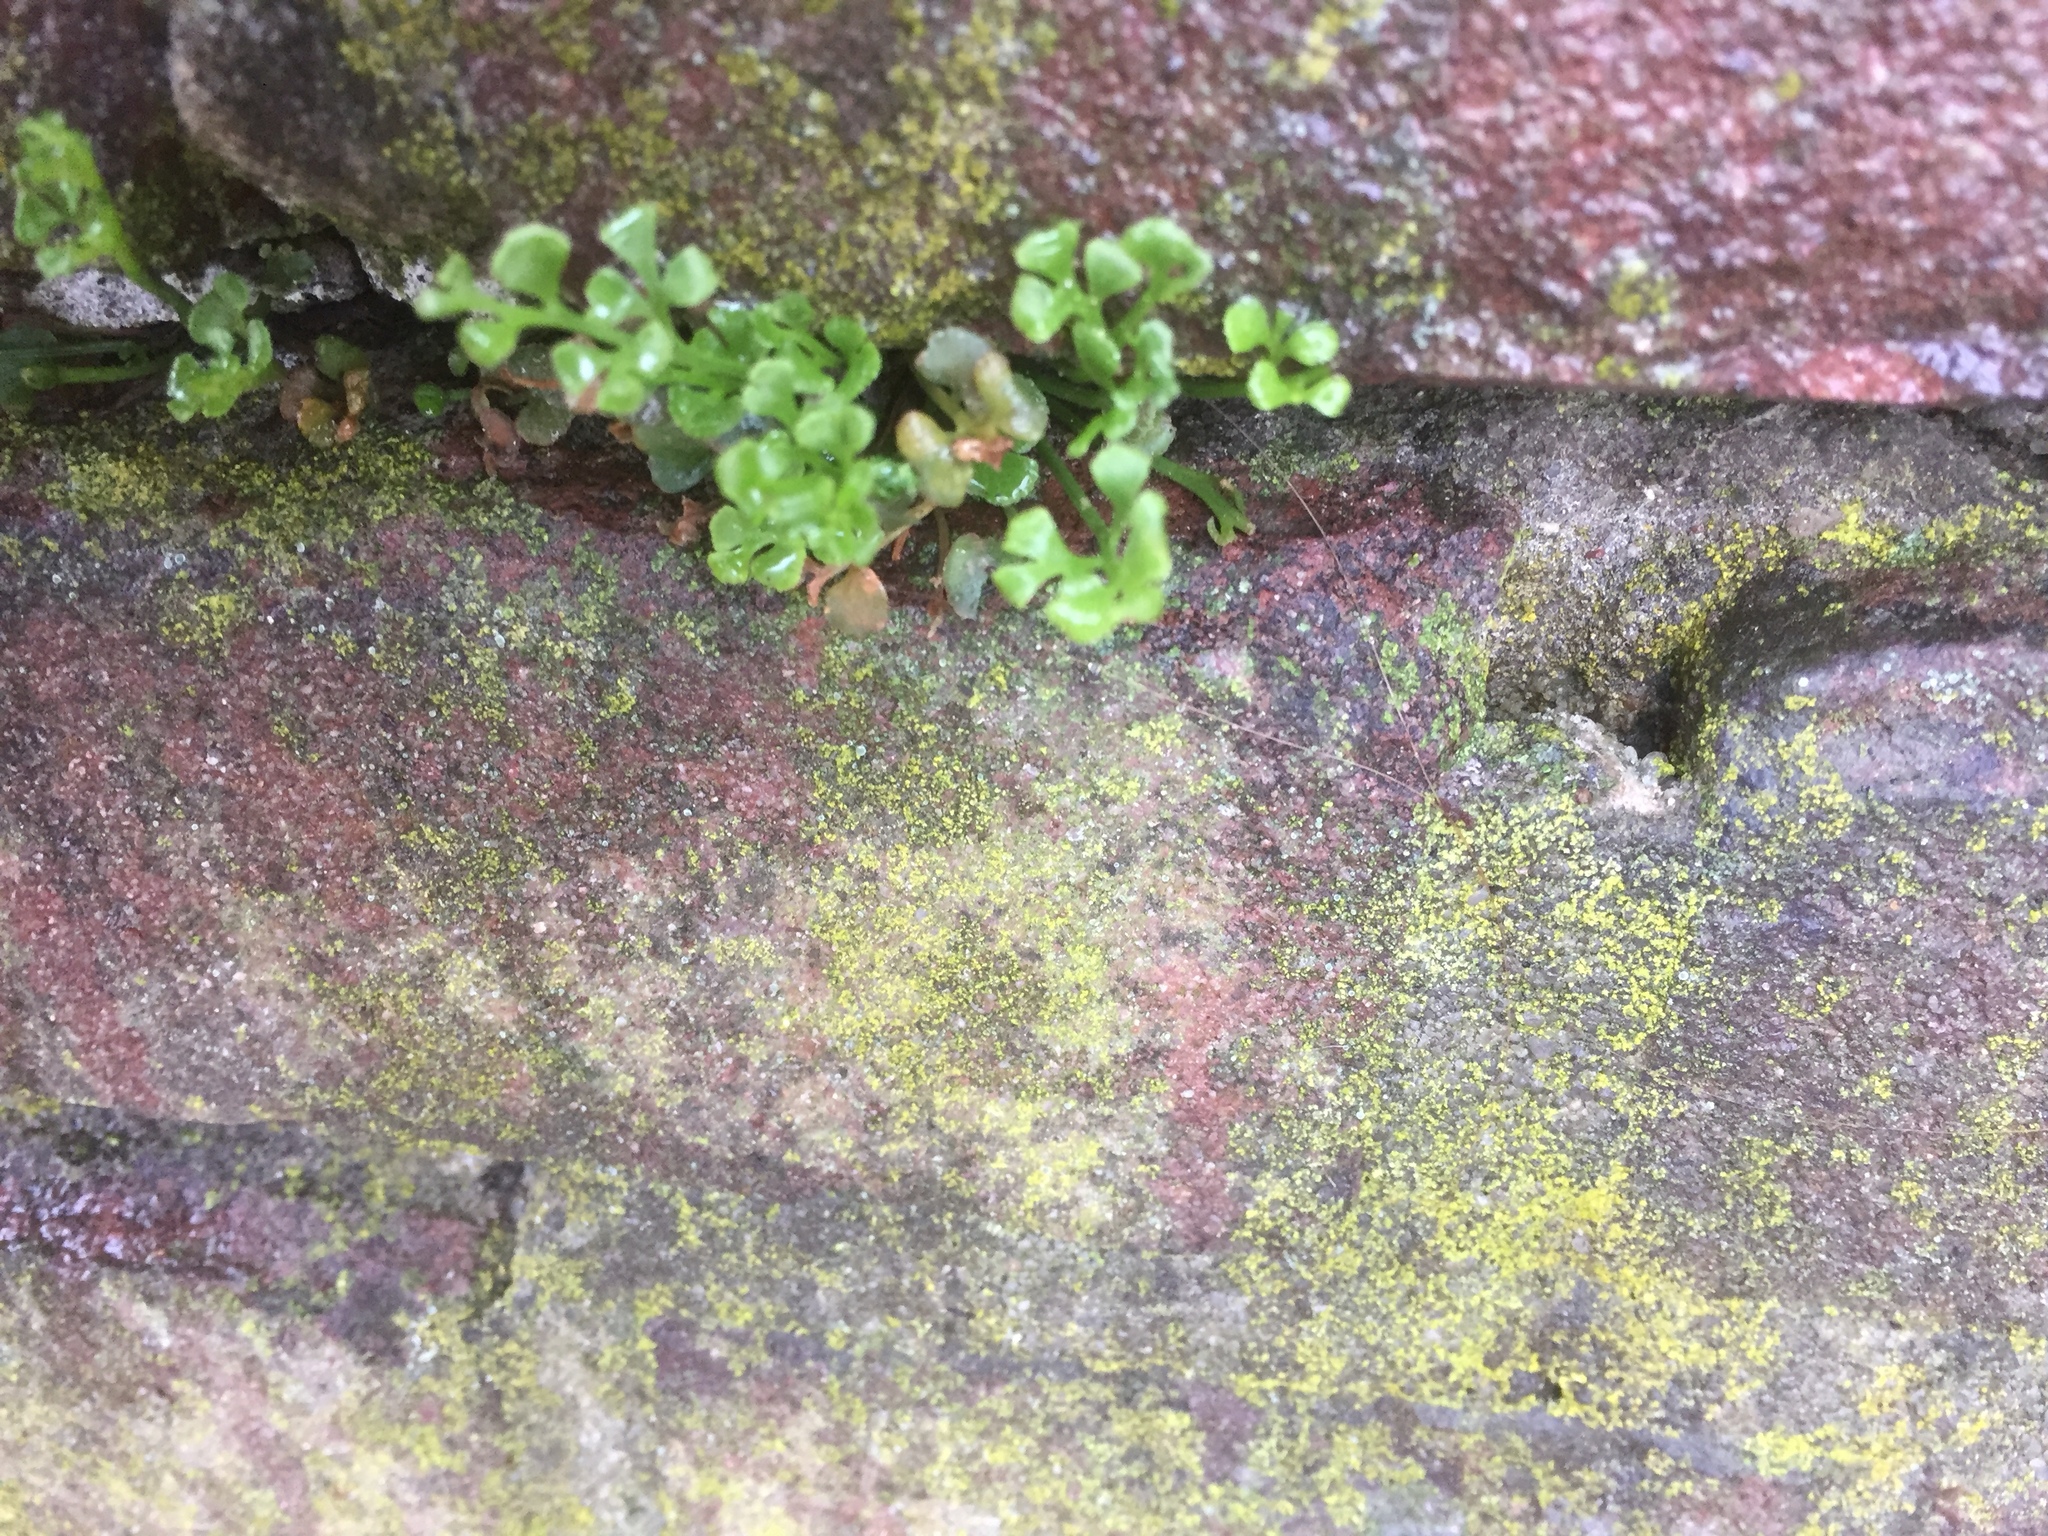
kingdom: Plantae
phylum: Tracheophyta
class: Polypodiopsida
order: Polypodiales
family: Aspleniaceae
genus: Asplenium
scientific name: Asplenium ruta-muraria
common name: Wall-rue
